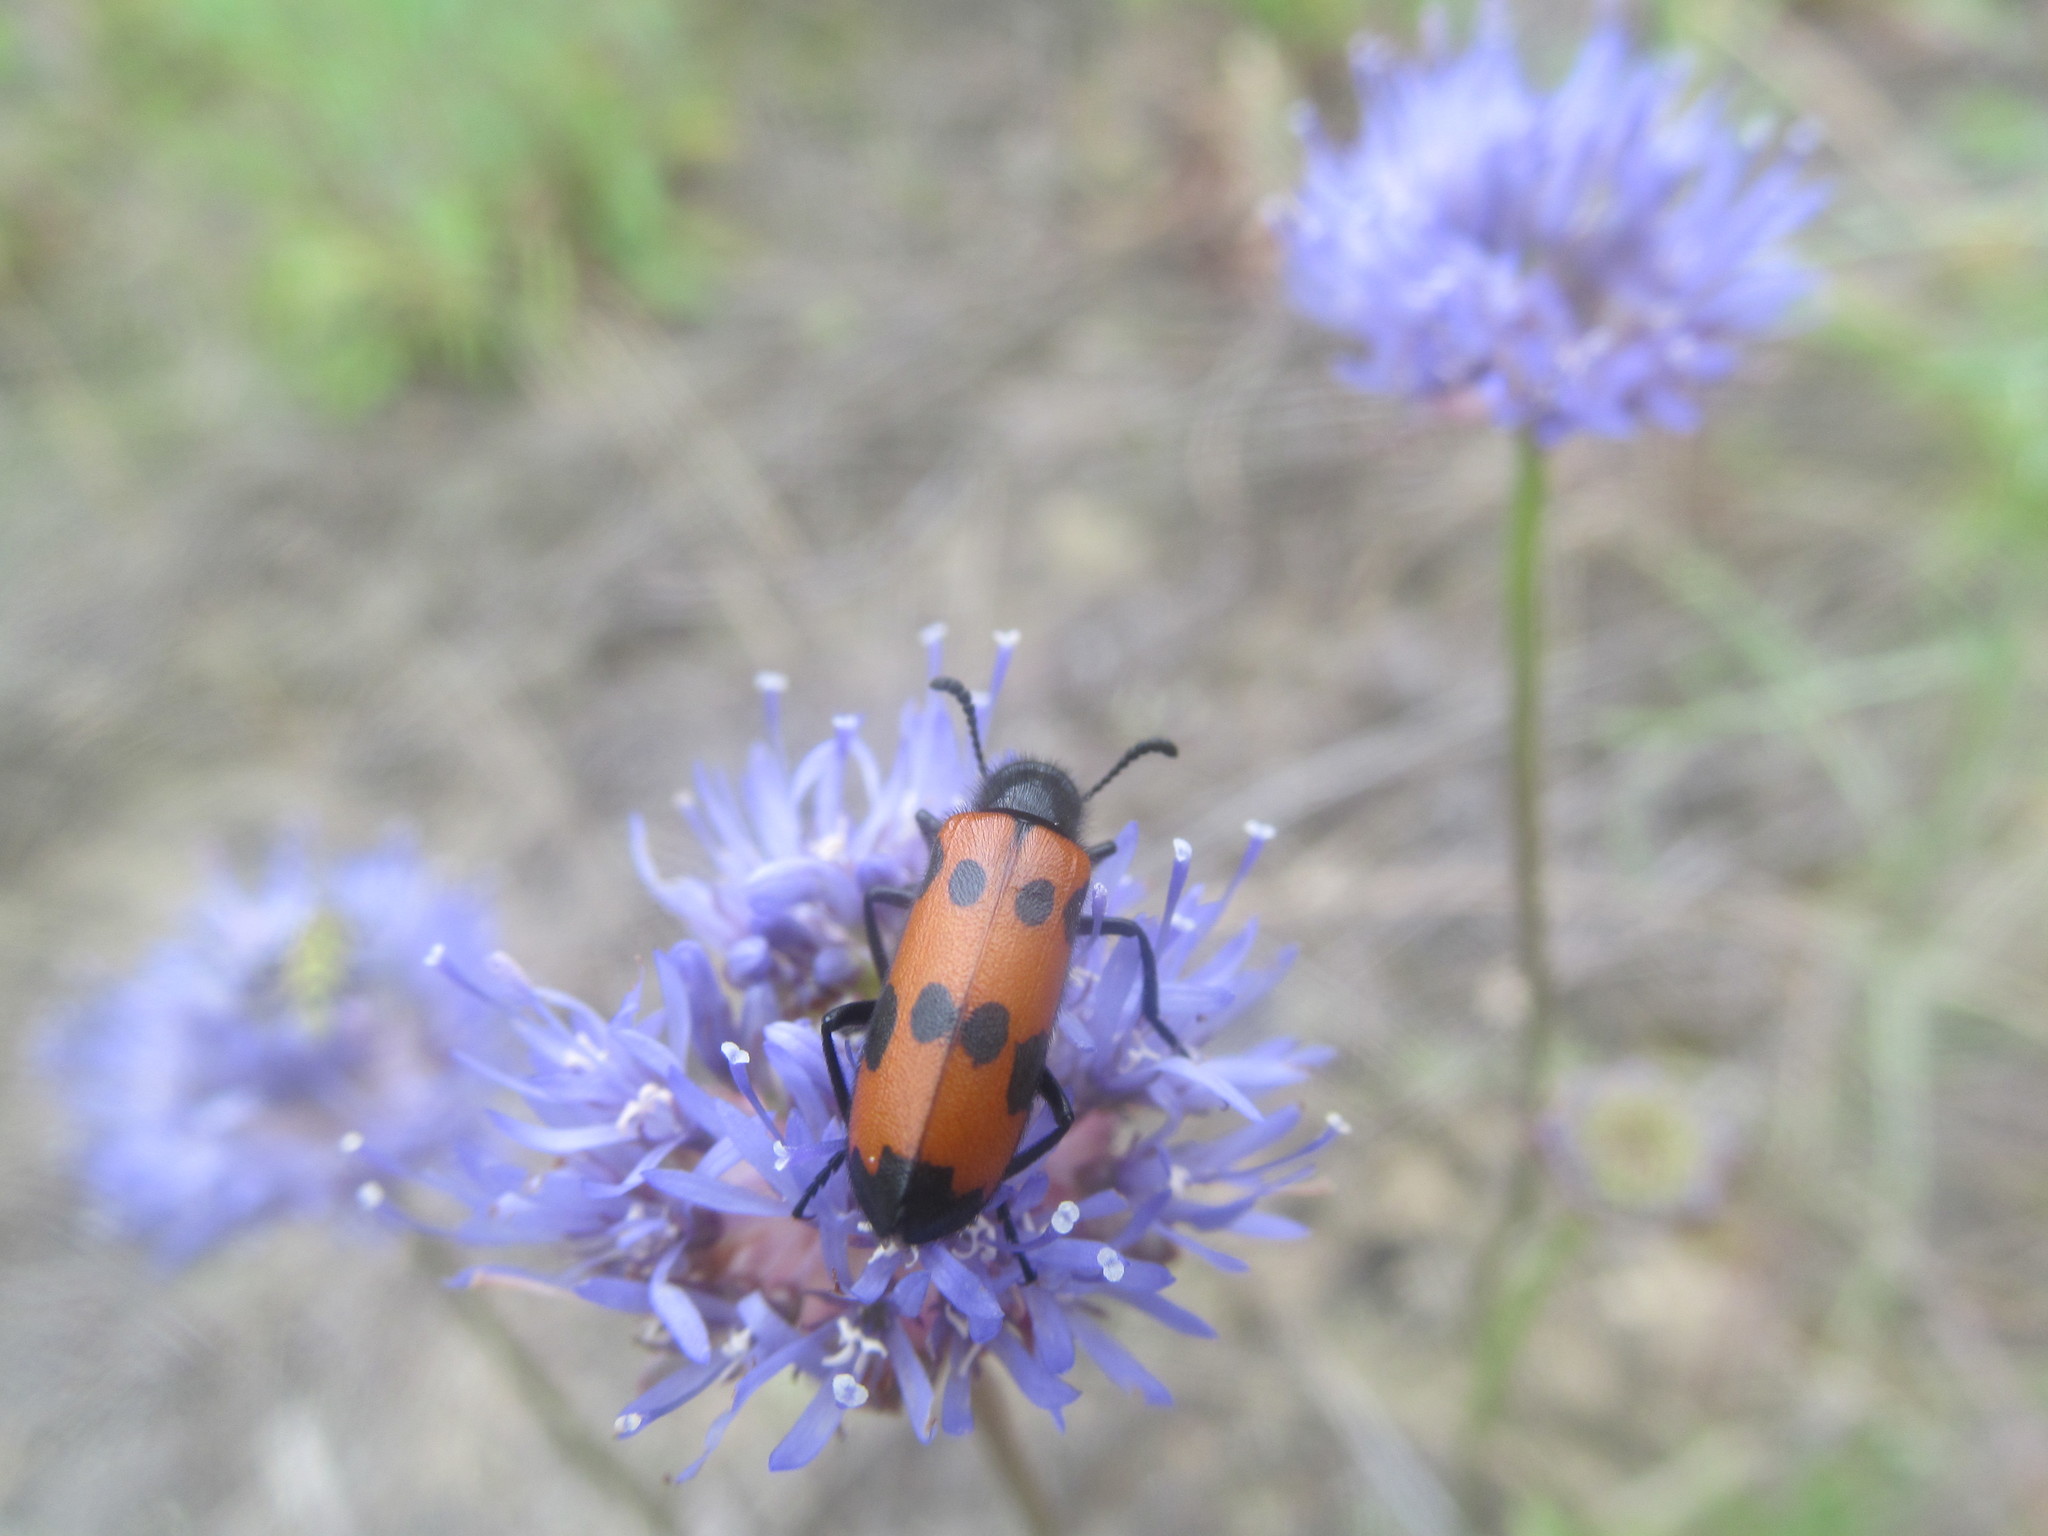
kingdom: Animalia
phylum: Arthropoda
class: Insecta
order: Coleoptera
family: Meloidae
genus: Mylabris
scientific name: Mylabris quadripunctata
